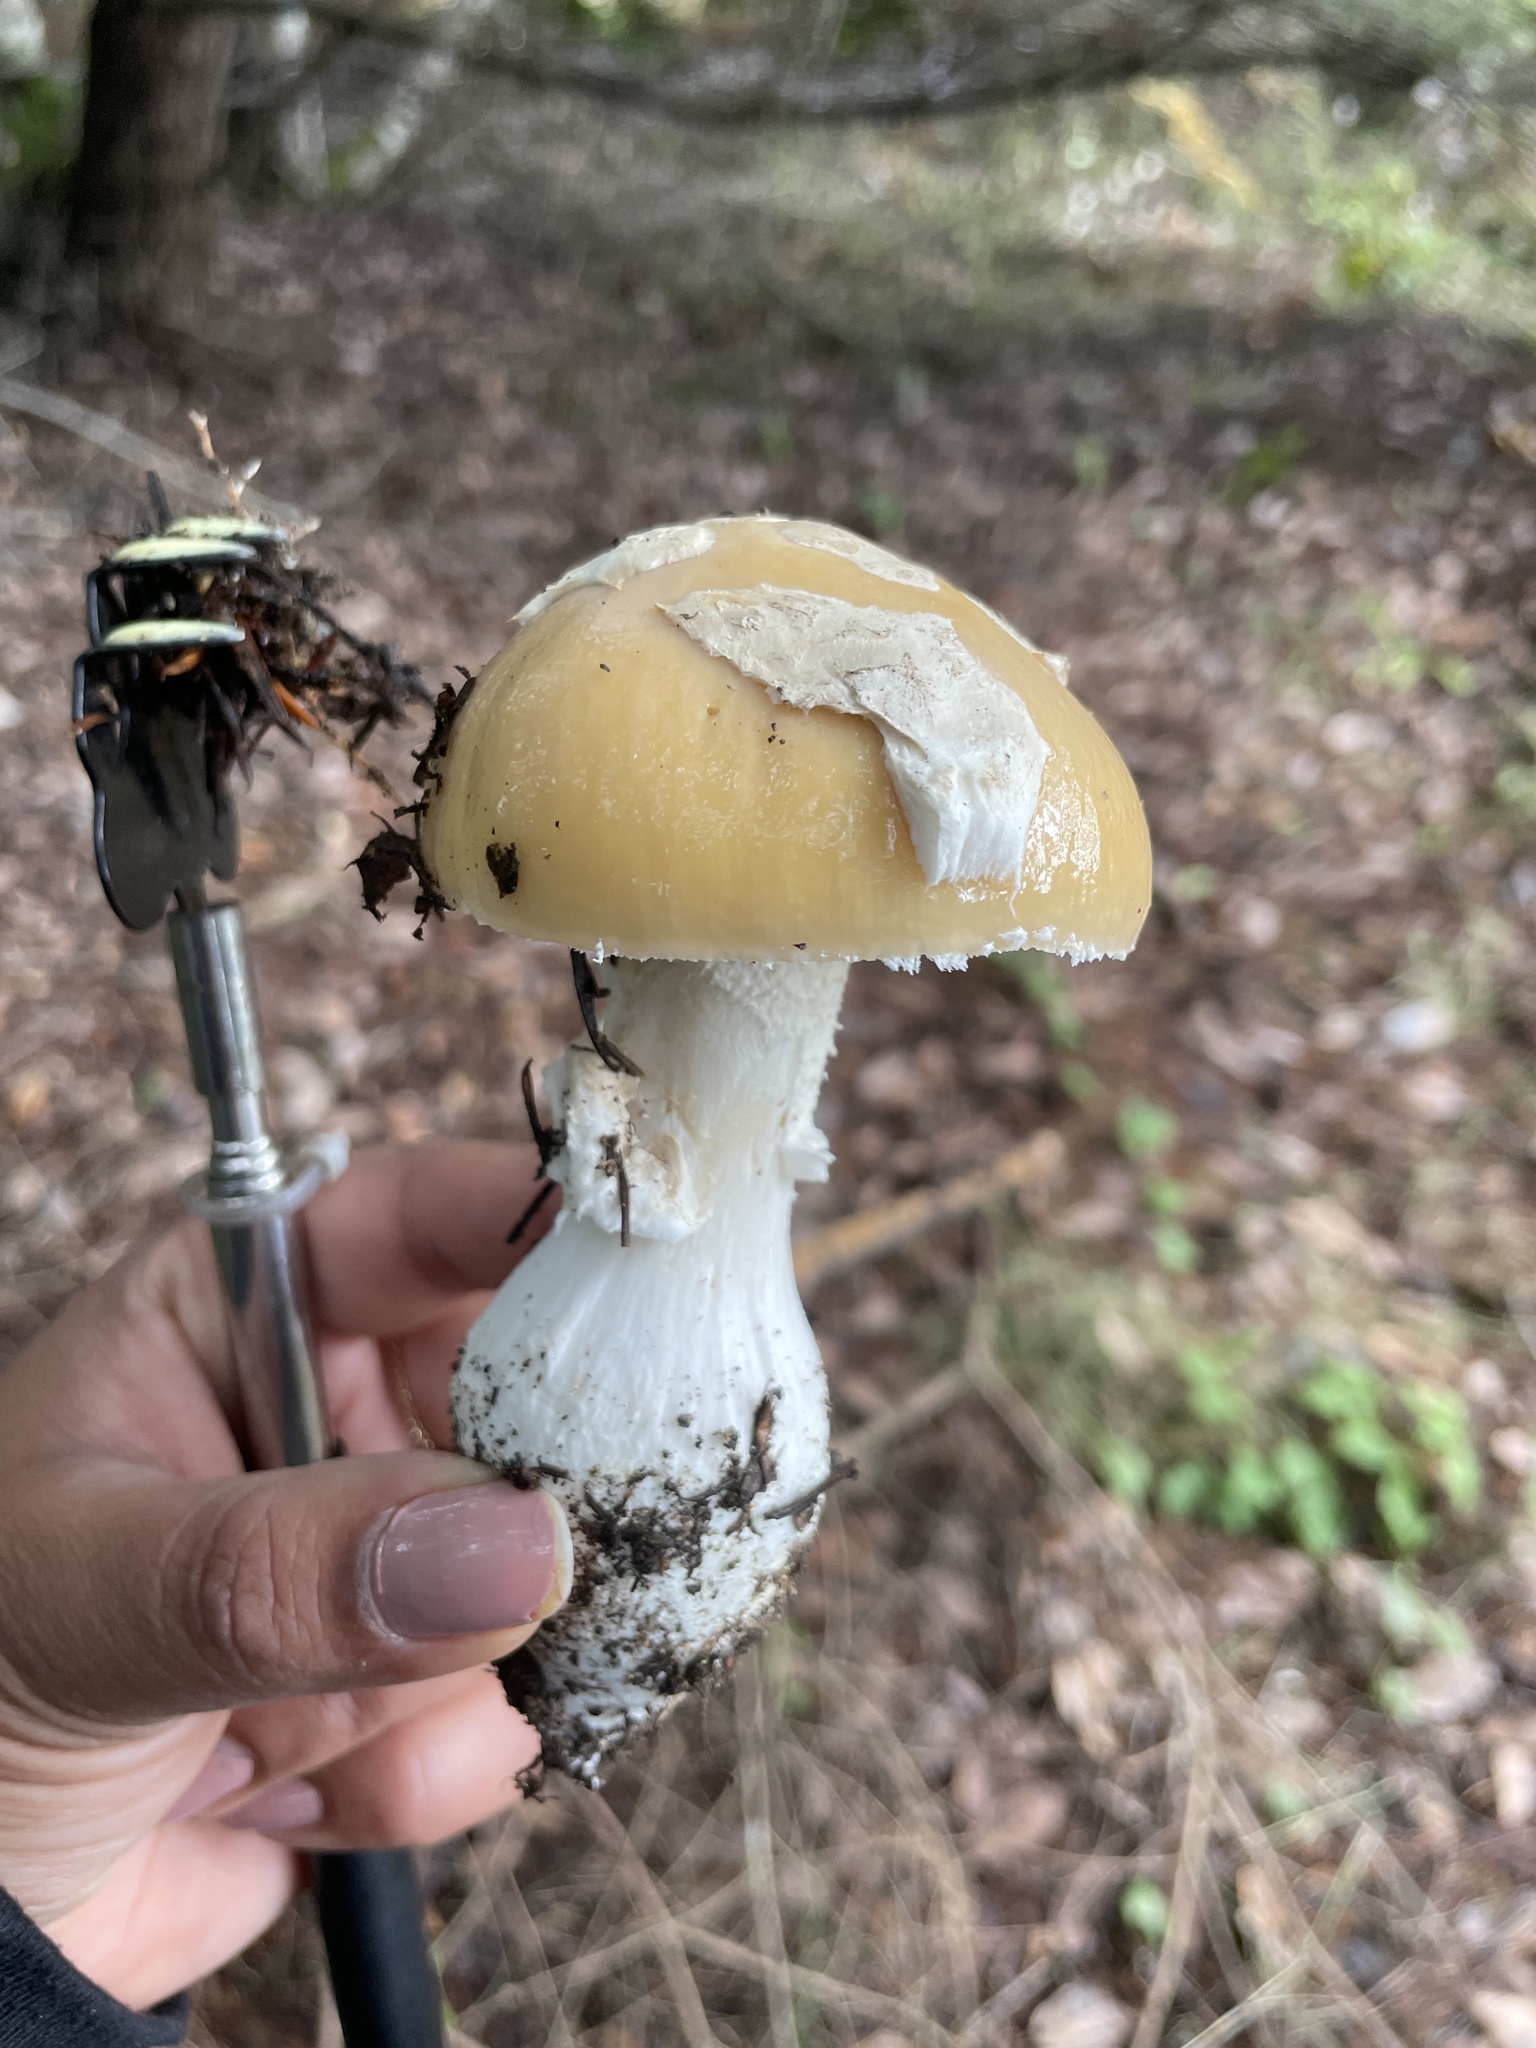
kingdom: Fungi
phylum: Basidiomycota
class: Agaricomycetes
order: Agaricales
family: Amanitaceae
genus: Amanita
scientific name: Amanita calyptroderma
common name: Coccora
